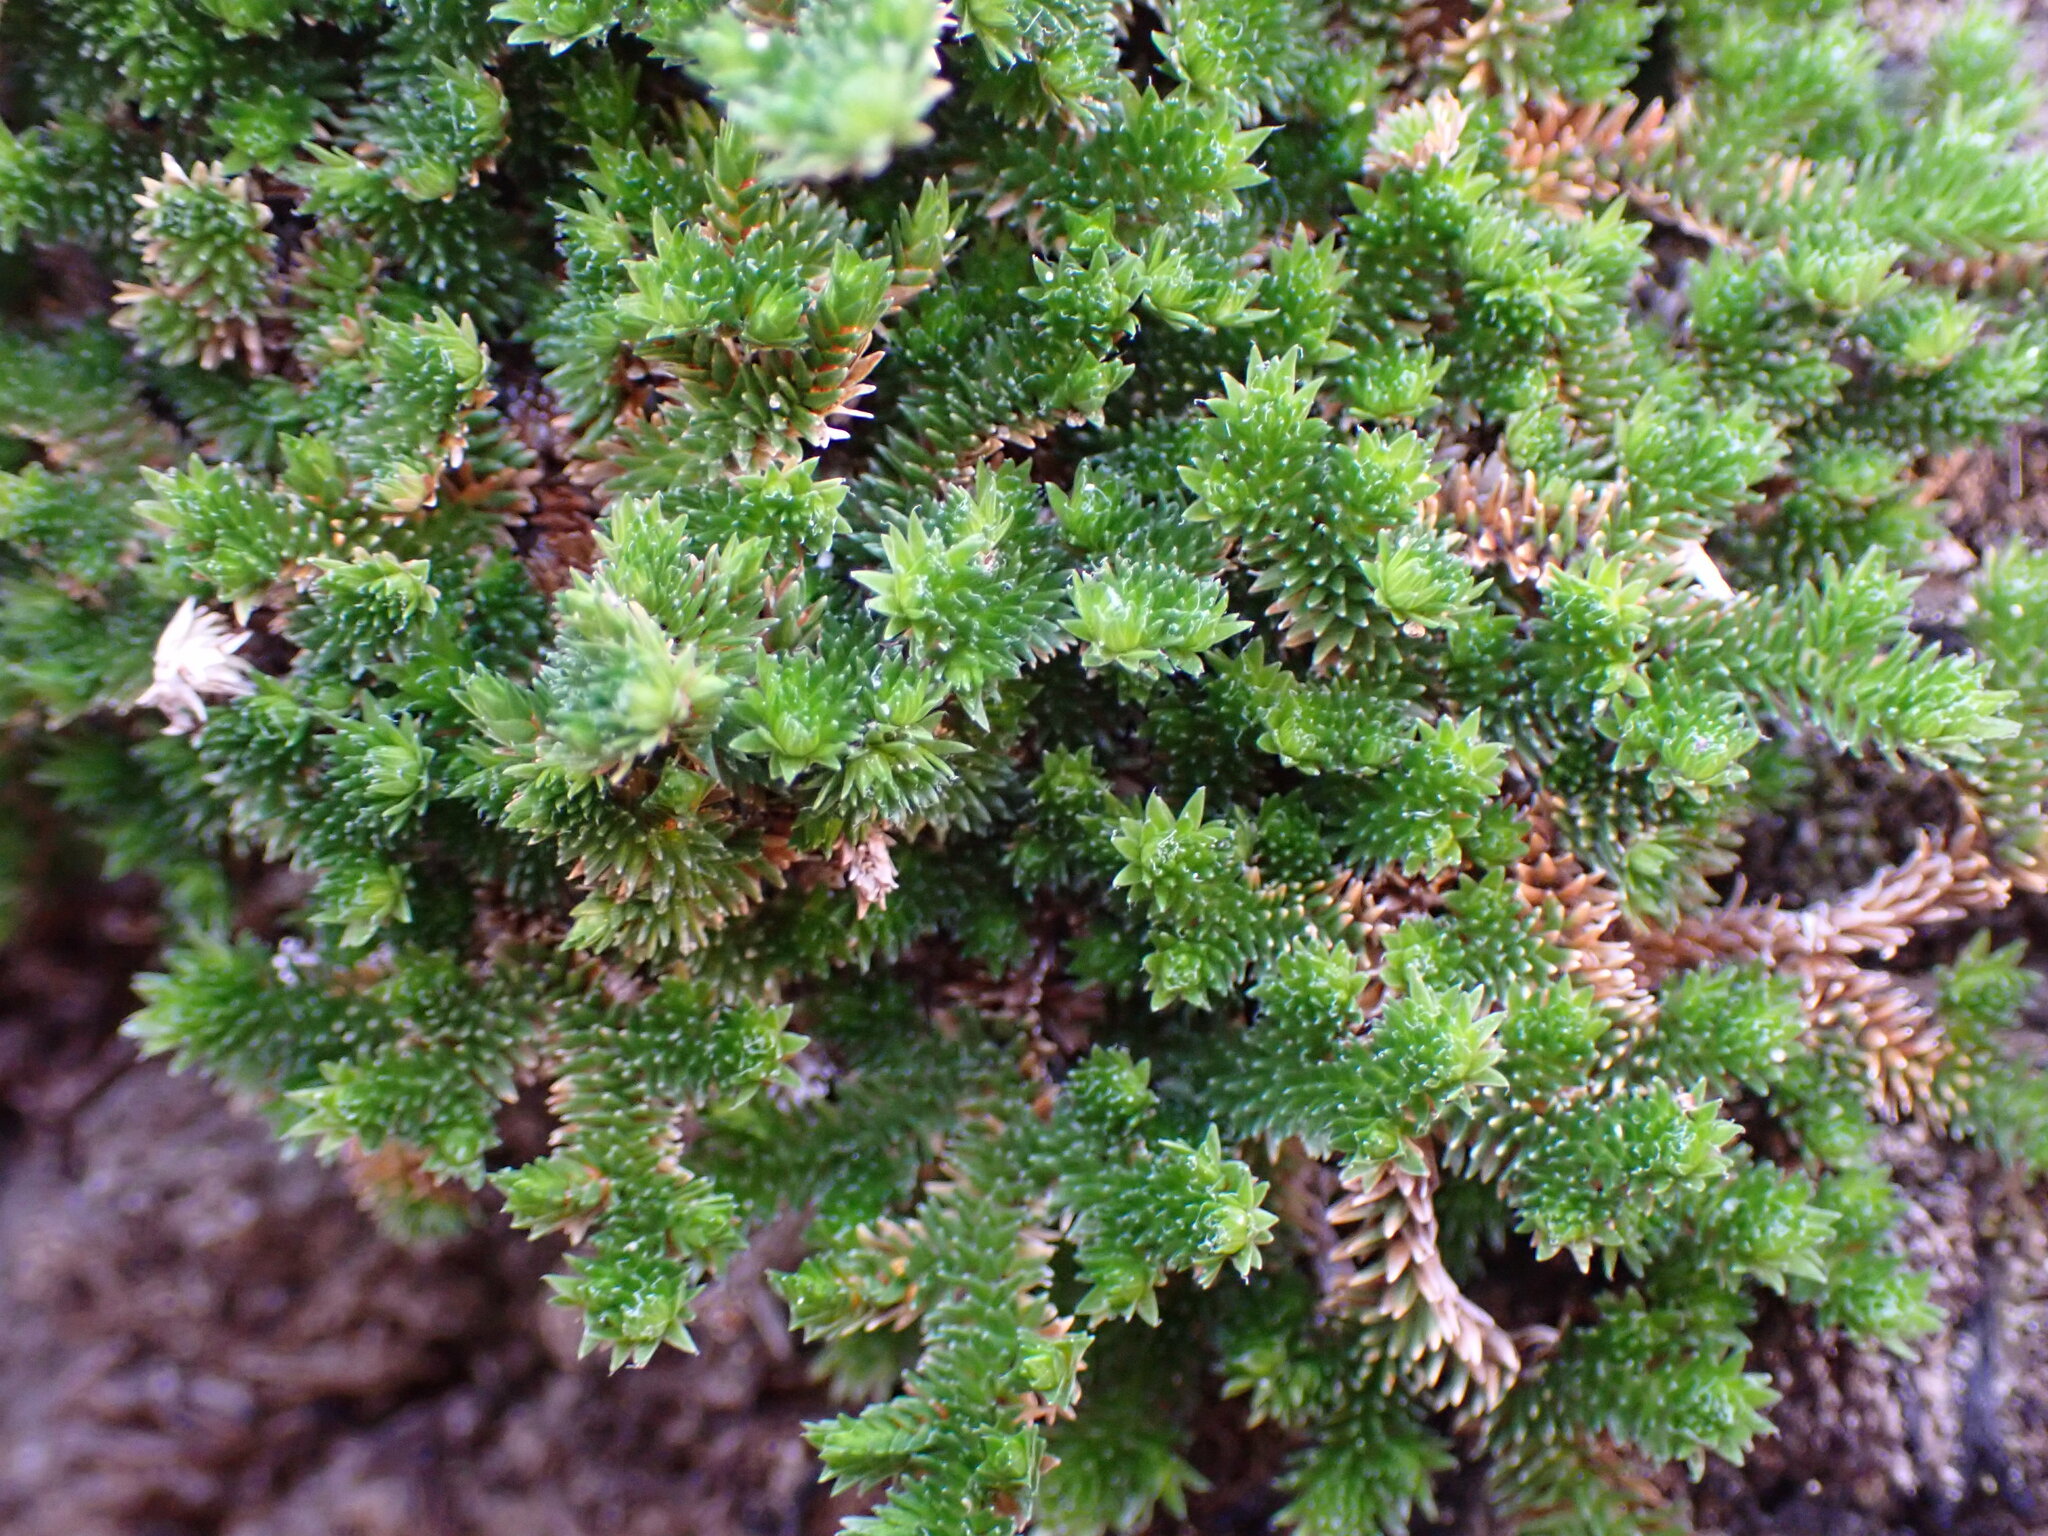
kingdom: Plantae
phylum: Tracheophyta
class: Lycopodiopsida
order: Selaginellales
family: Selaginellaceae
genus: Selaginella
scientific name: Selaginella eremophila
